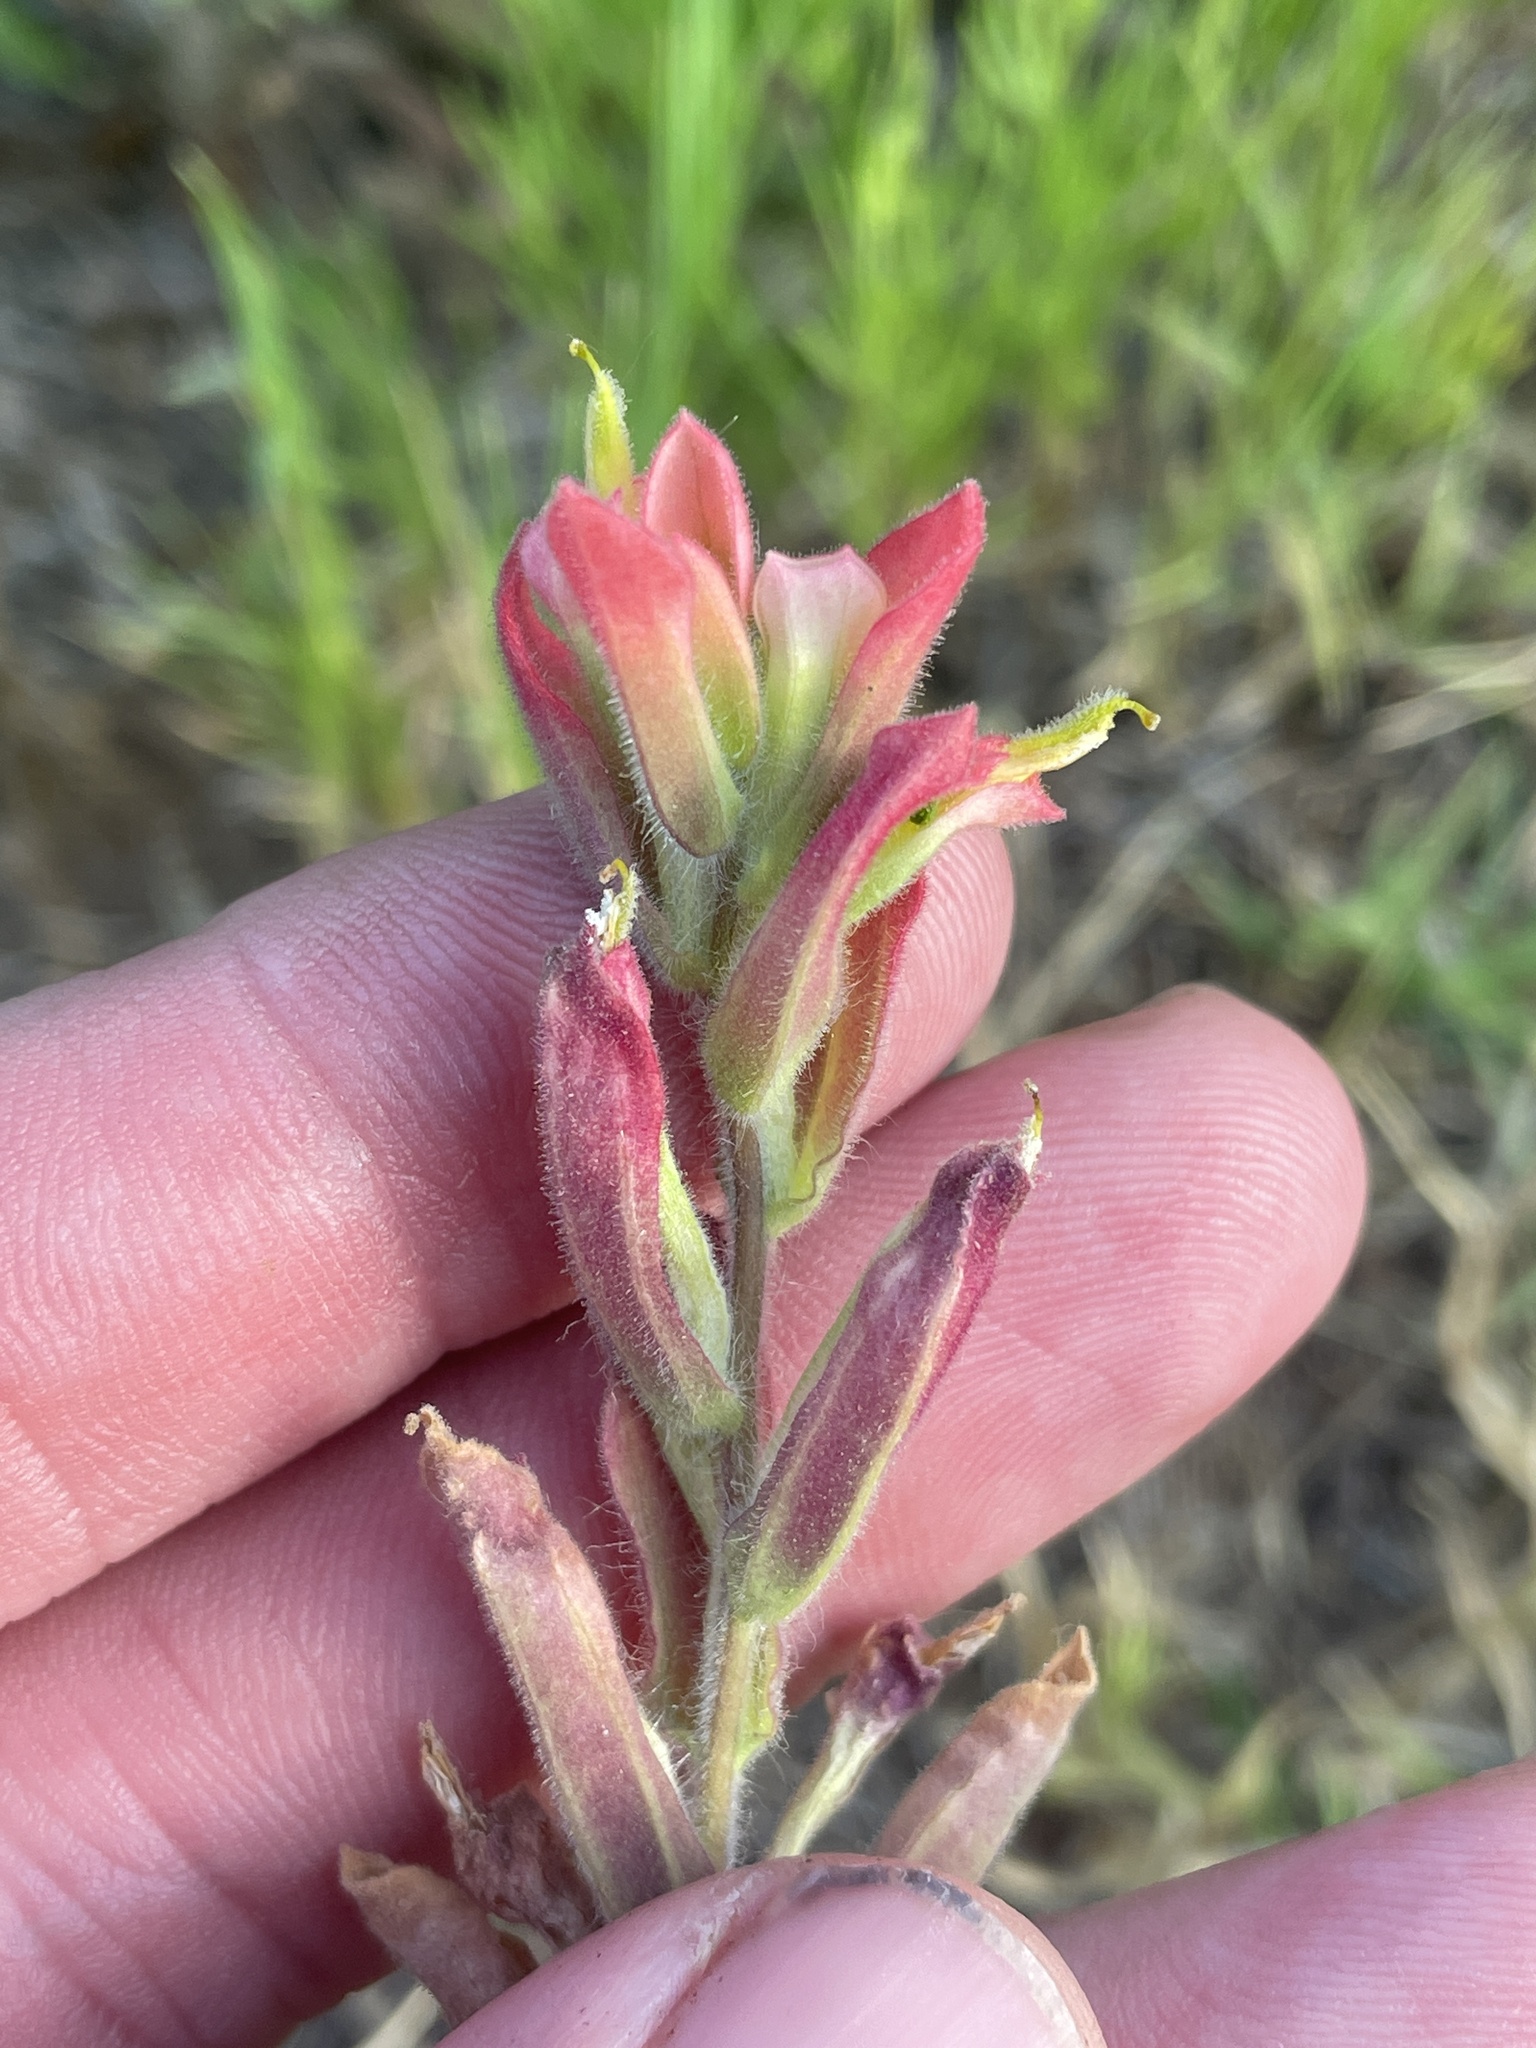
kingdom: Plantae
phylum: Tracheophyta
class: Magnoliopsida
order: Lamiales
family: Orobanchaceae
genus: Castilleja
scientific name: Castilleja indivisa
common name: Texas paintbrush
